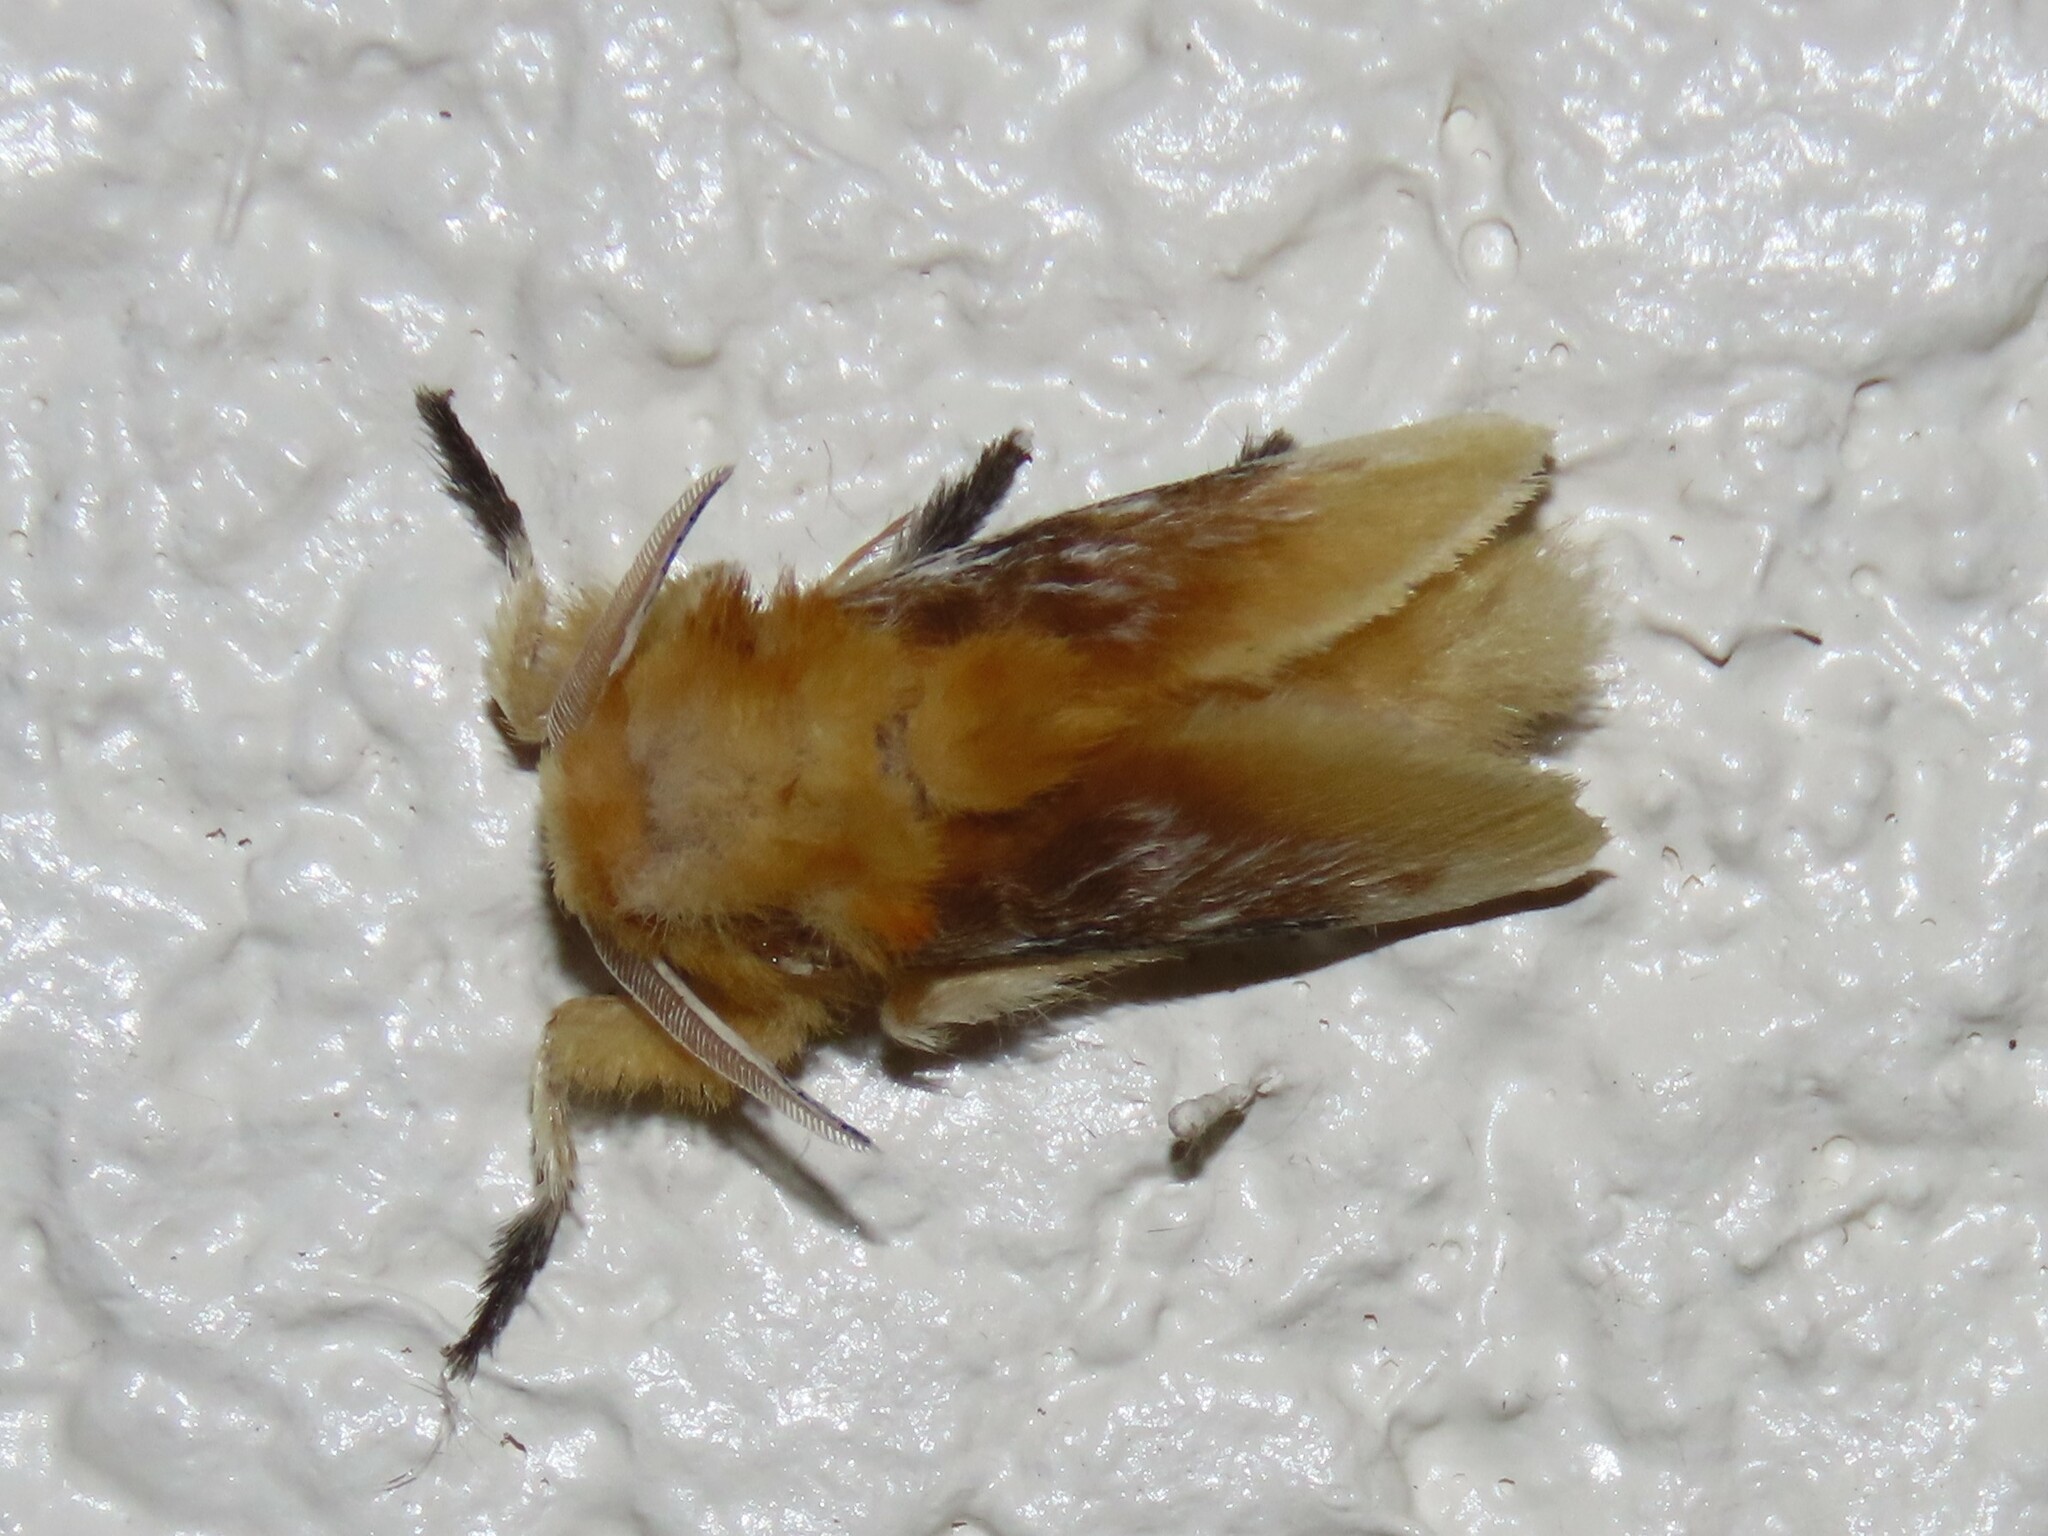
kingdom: Animalia
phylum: Arthropoda
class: Insecta
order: Lepidoptera
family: Megalopygidae
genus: Megalopyge
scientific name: Megalopyge opercularis
